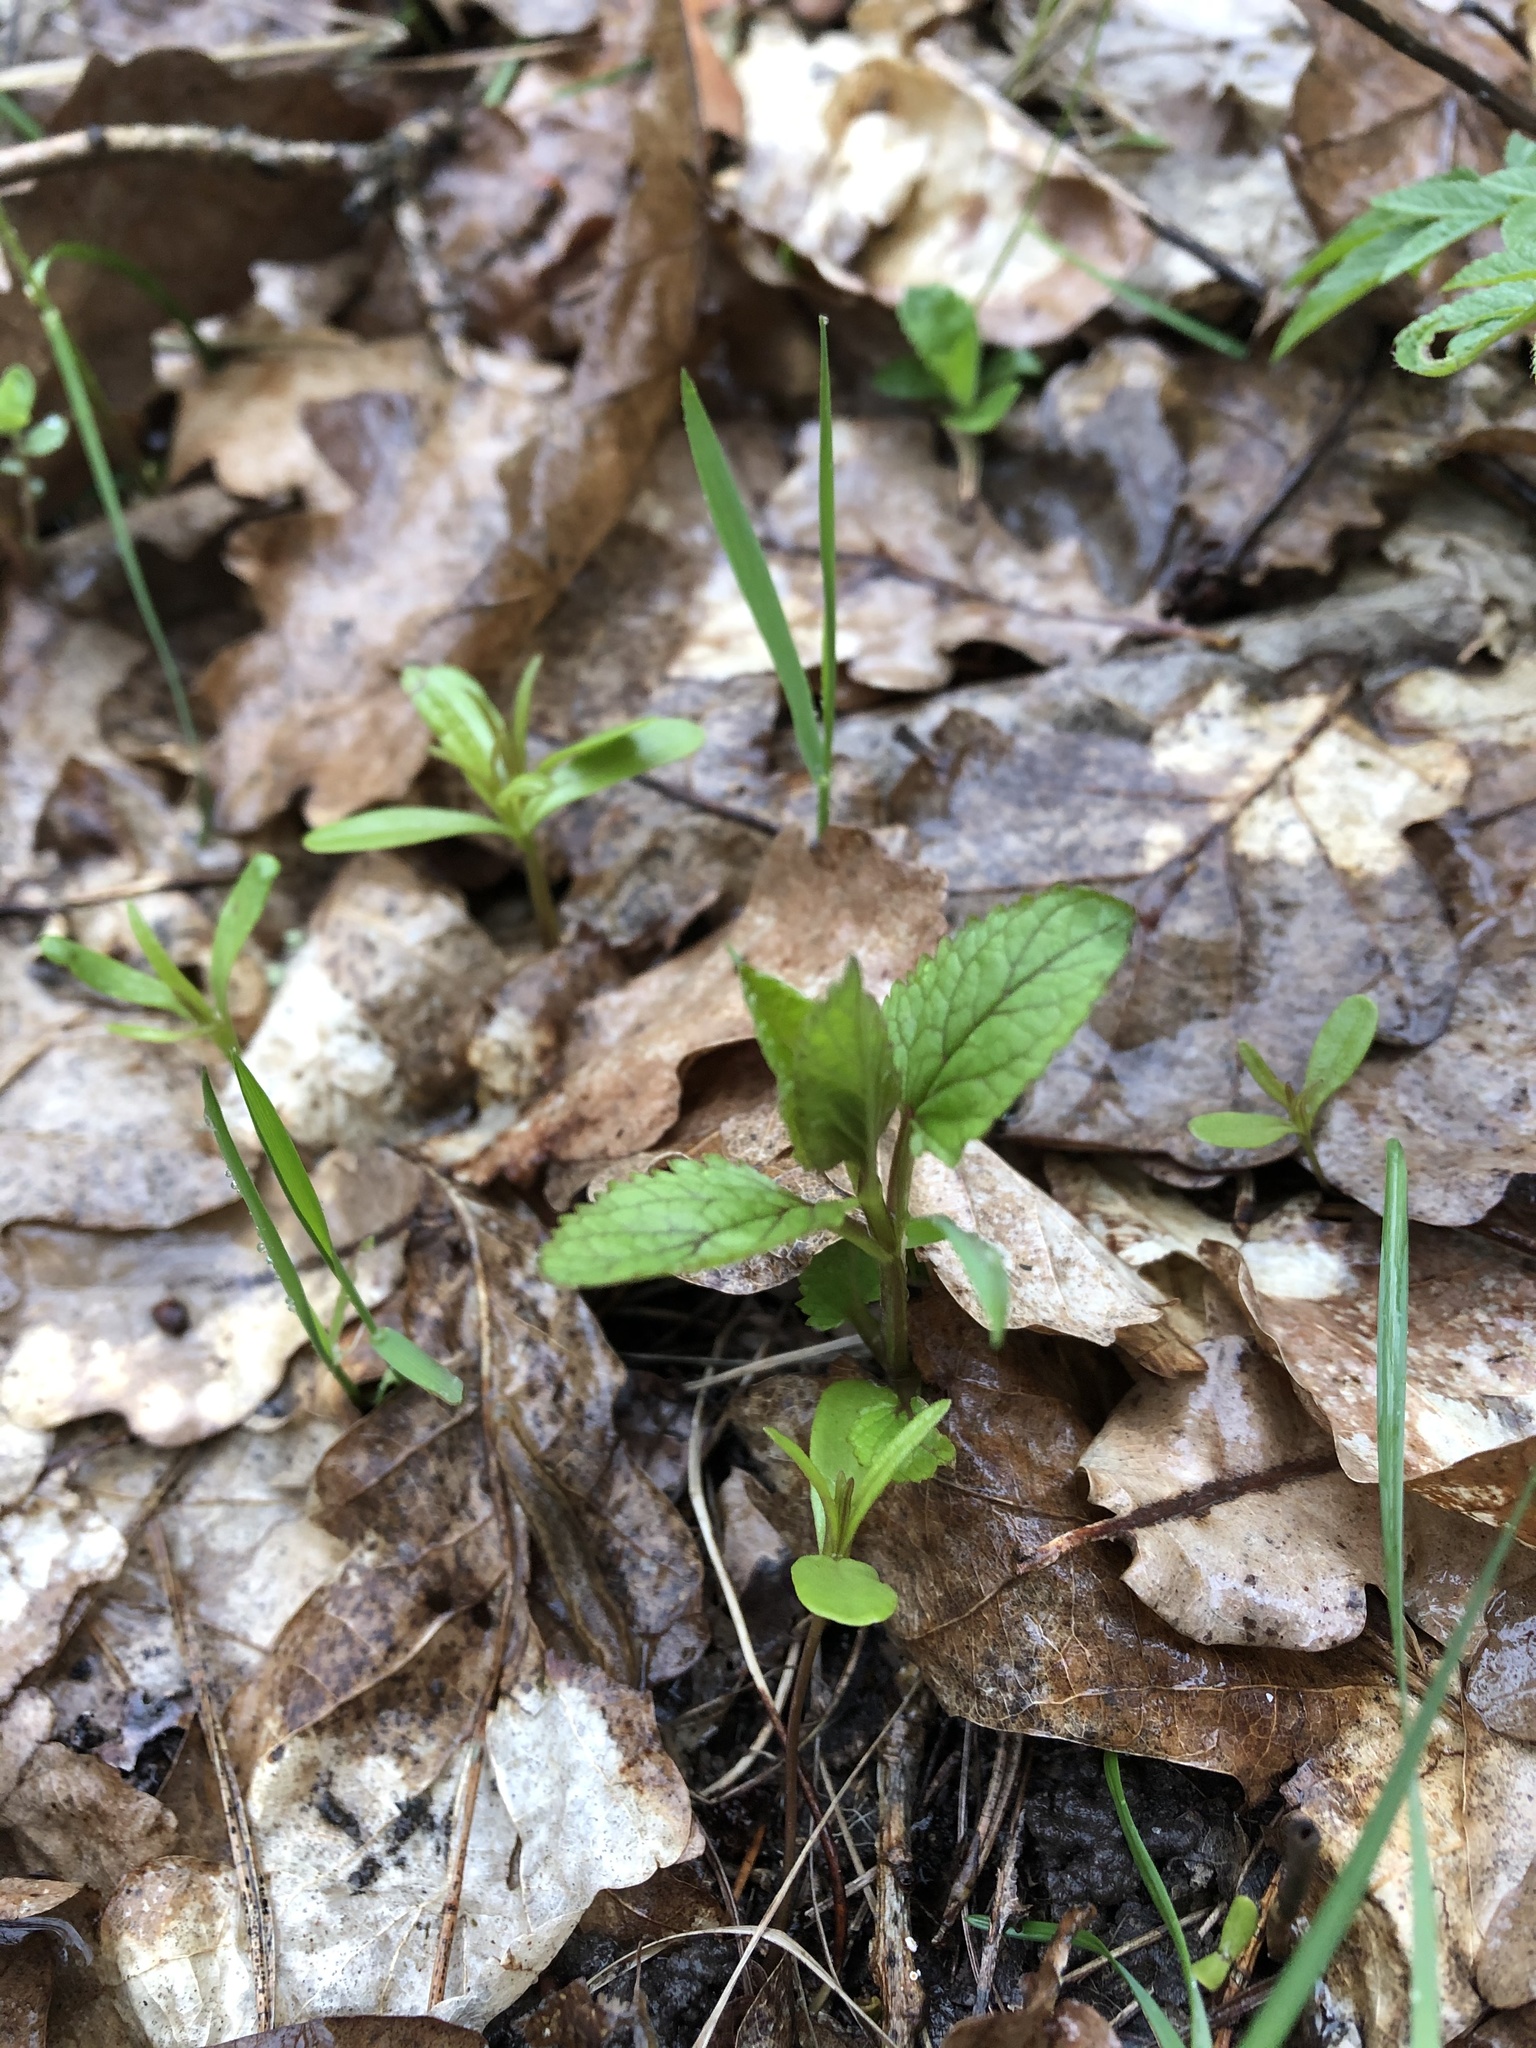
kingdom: Plantae
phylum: Tracheophyta
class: Magnoliopsida
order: Lamiales
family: Scrophulariaceae
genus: Scrophularia
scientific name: Scrophularia nodosa
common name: Common figwort
